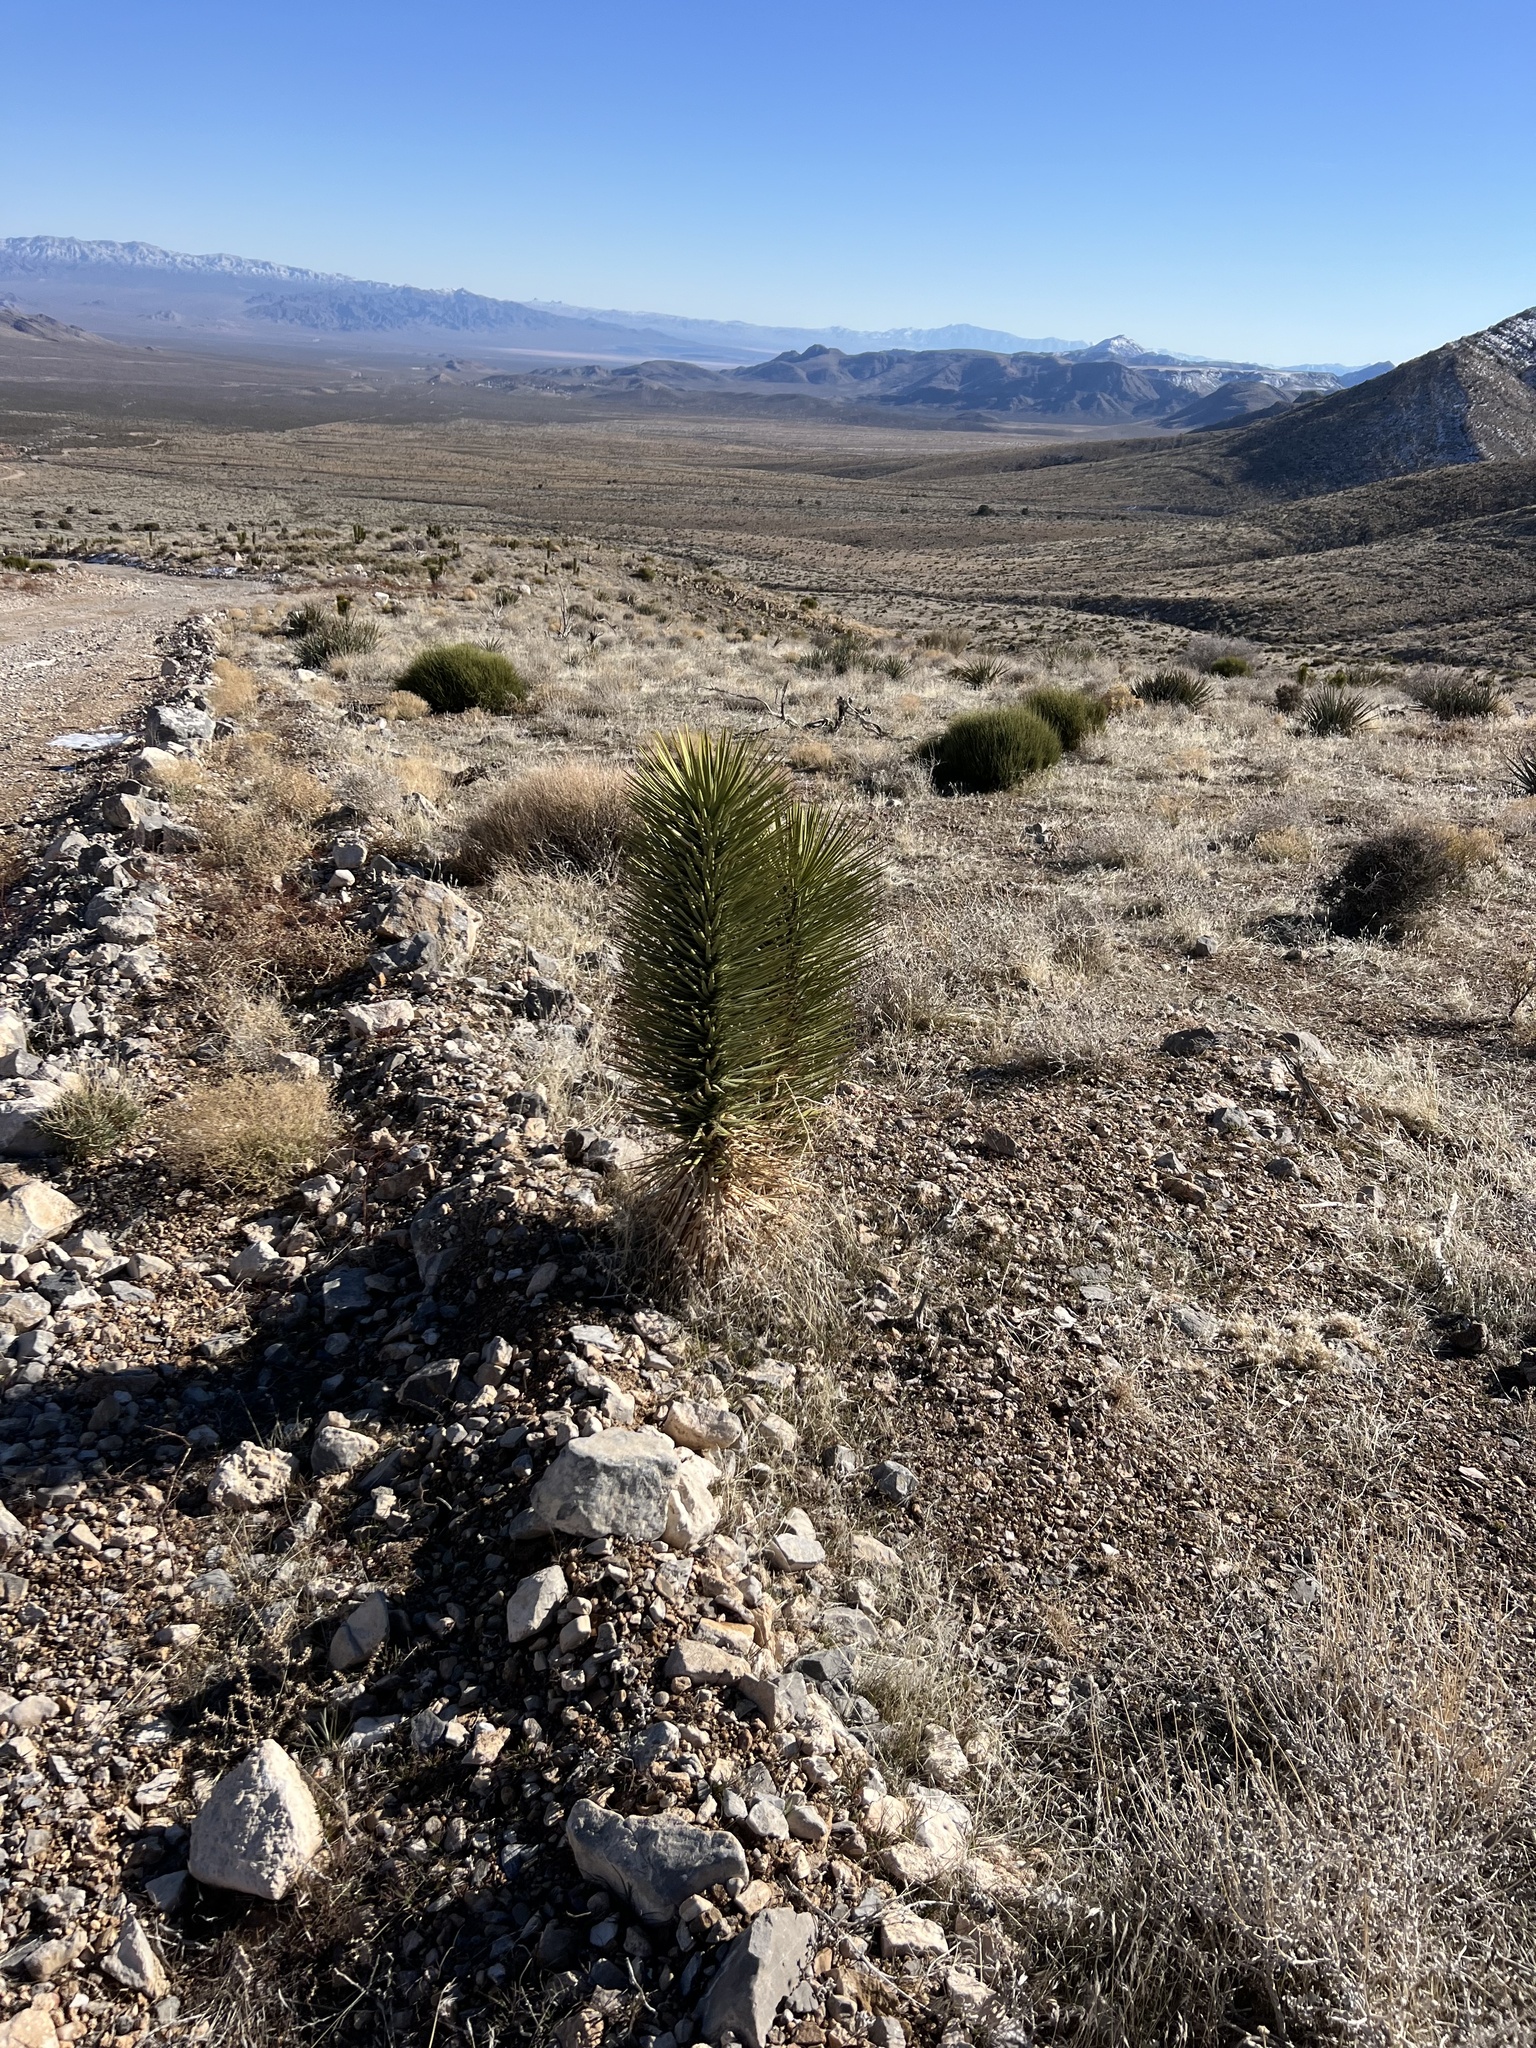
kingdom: Plantae
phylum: Tracheophyta
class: Liliopsida
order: Asparagales
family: Asparagaceae
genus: Yucca
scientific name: Yucca brevifolia
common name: Joshua tree
